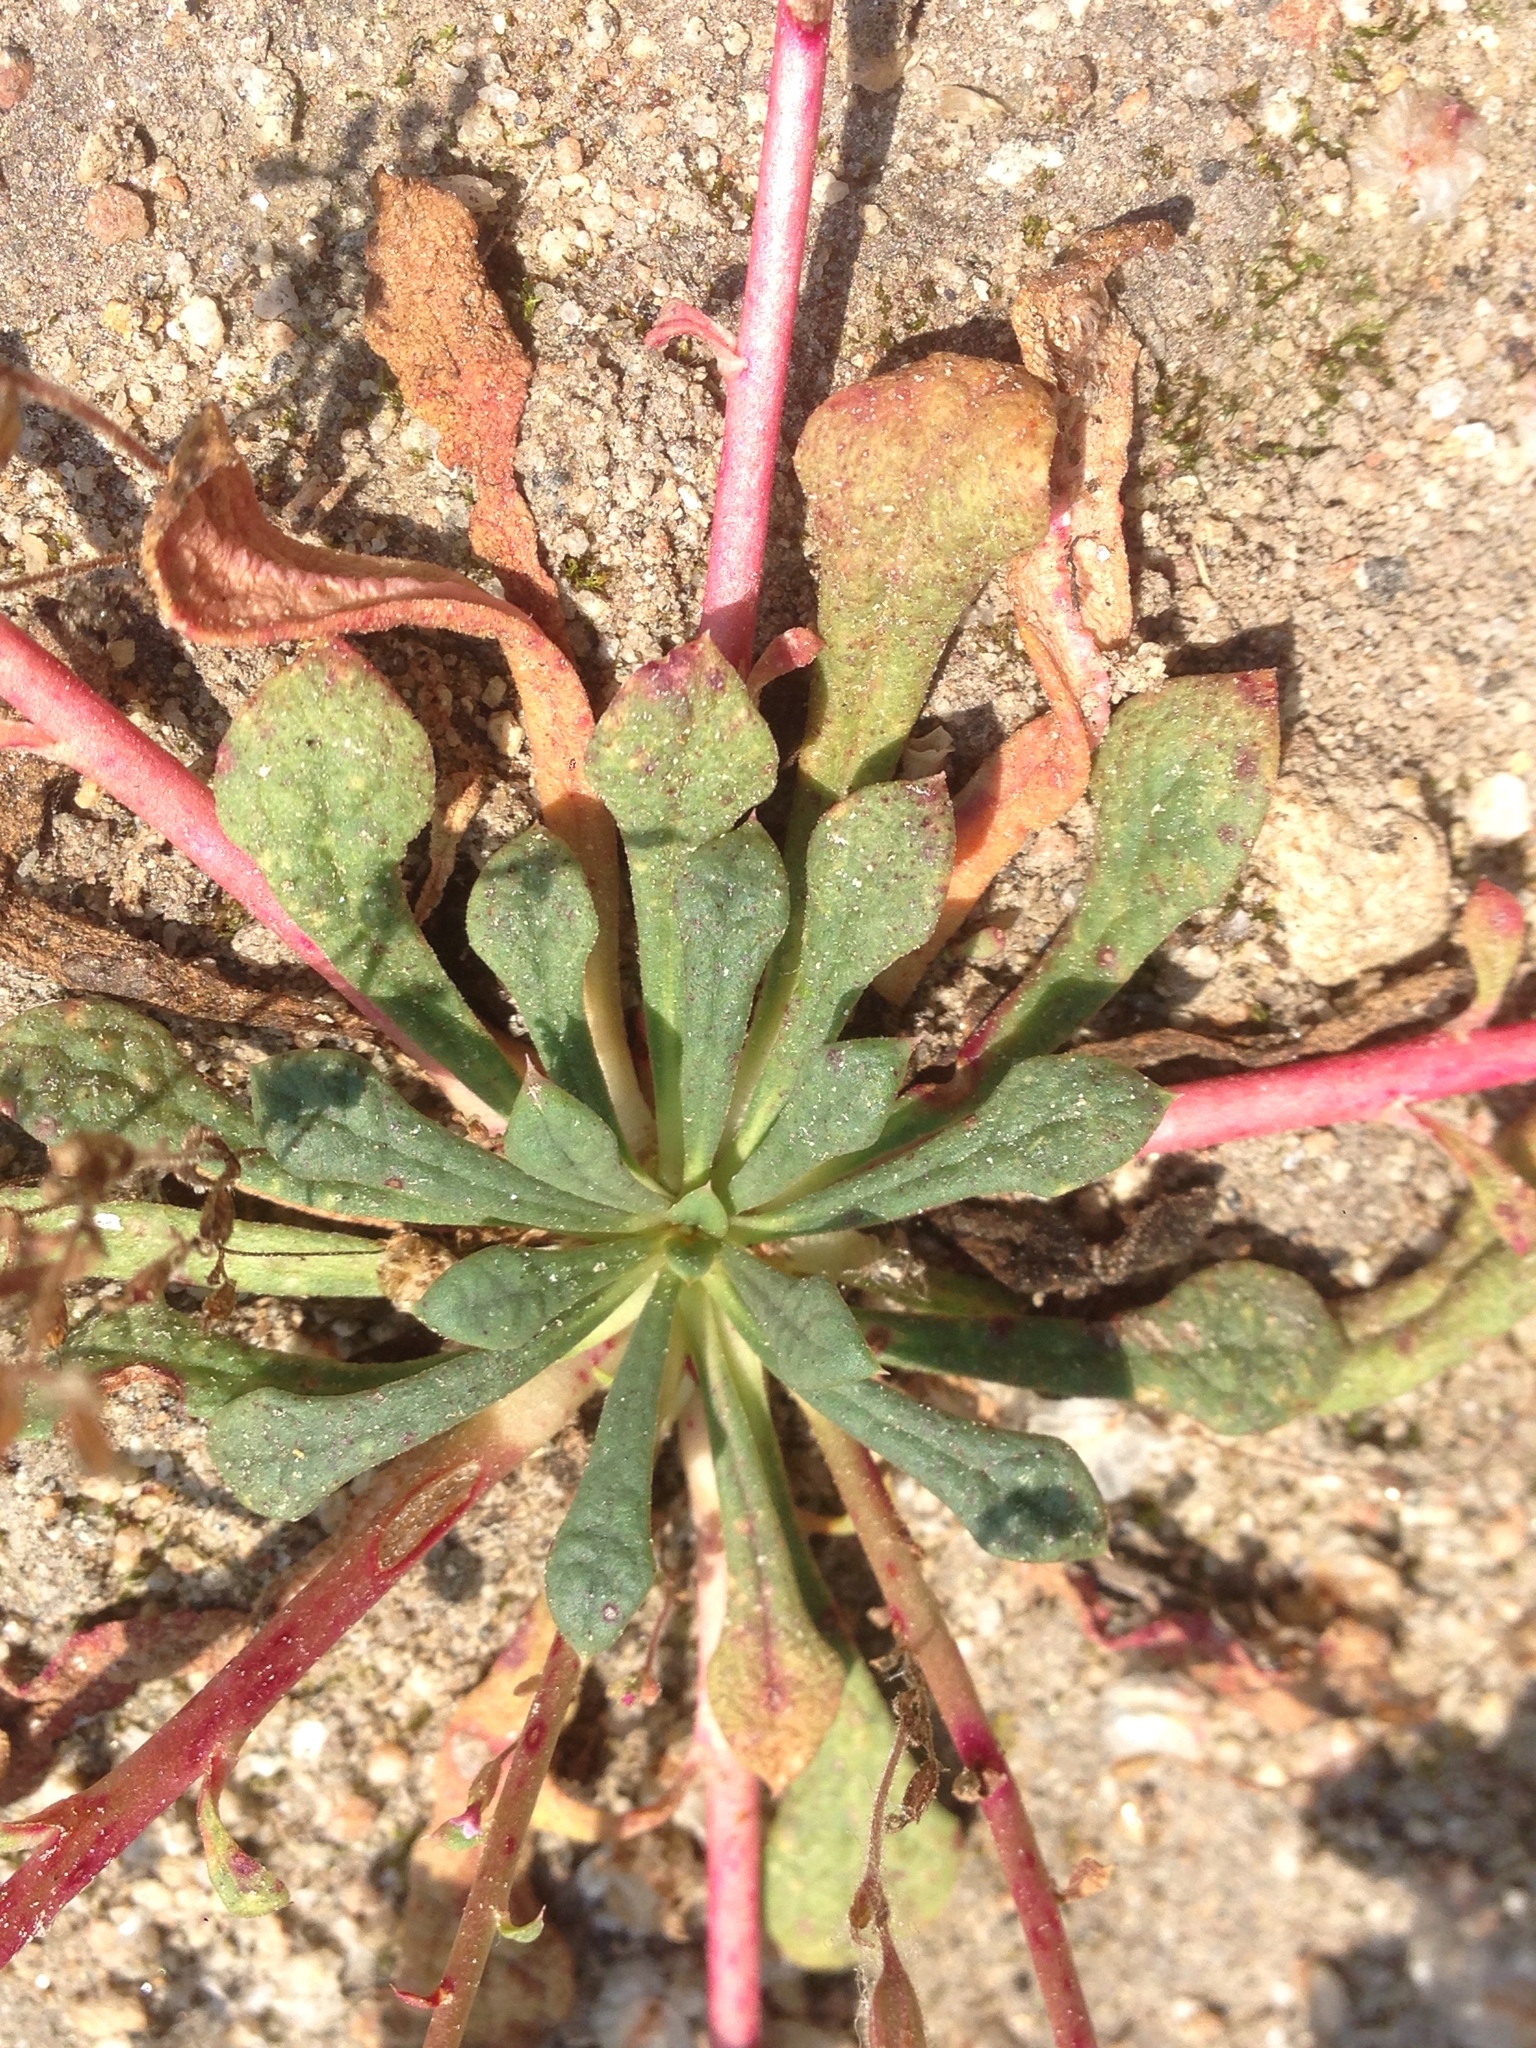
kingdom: Plantae
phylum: Tracheophyta
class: Magnoliopsida
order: Caryophyllales
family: Montiaceae
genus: Calyptridium
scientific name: Calyptridium monospermum
